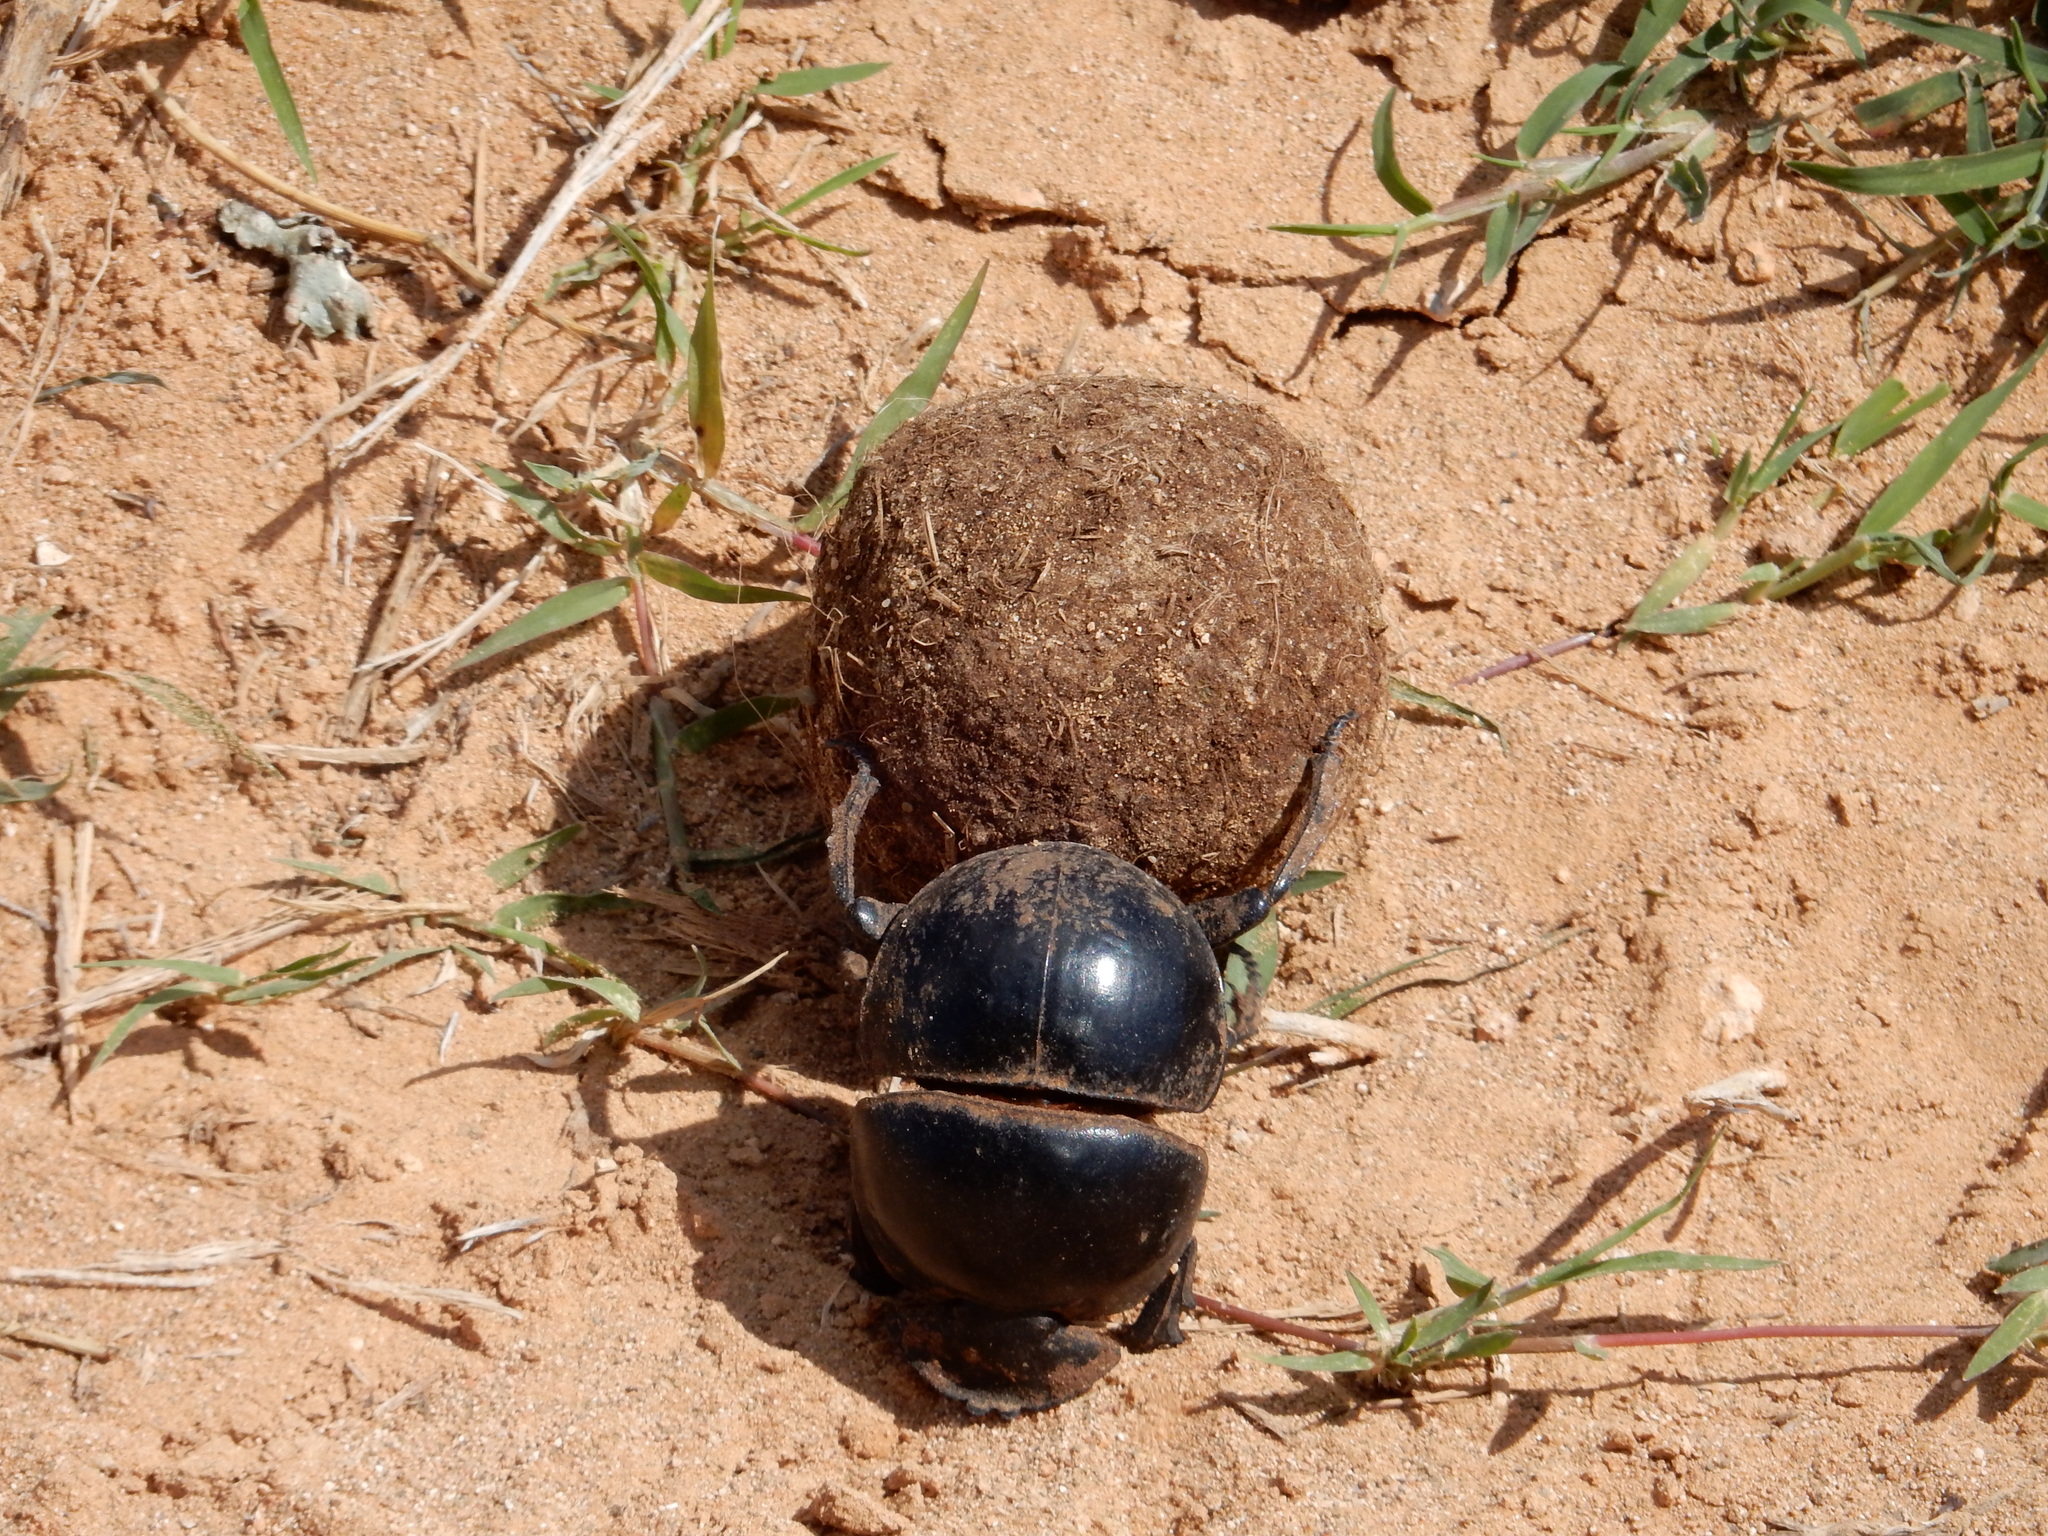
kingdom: Animalia
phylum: Arthropoda
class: Insecta
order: Coleoptera
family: Scarabaeidae
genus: Circellium
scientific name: Circellium bacchus
